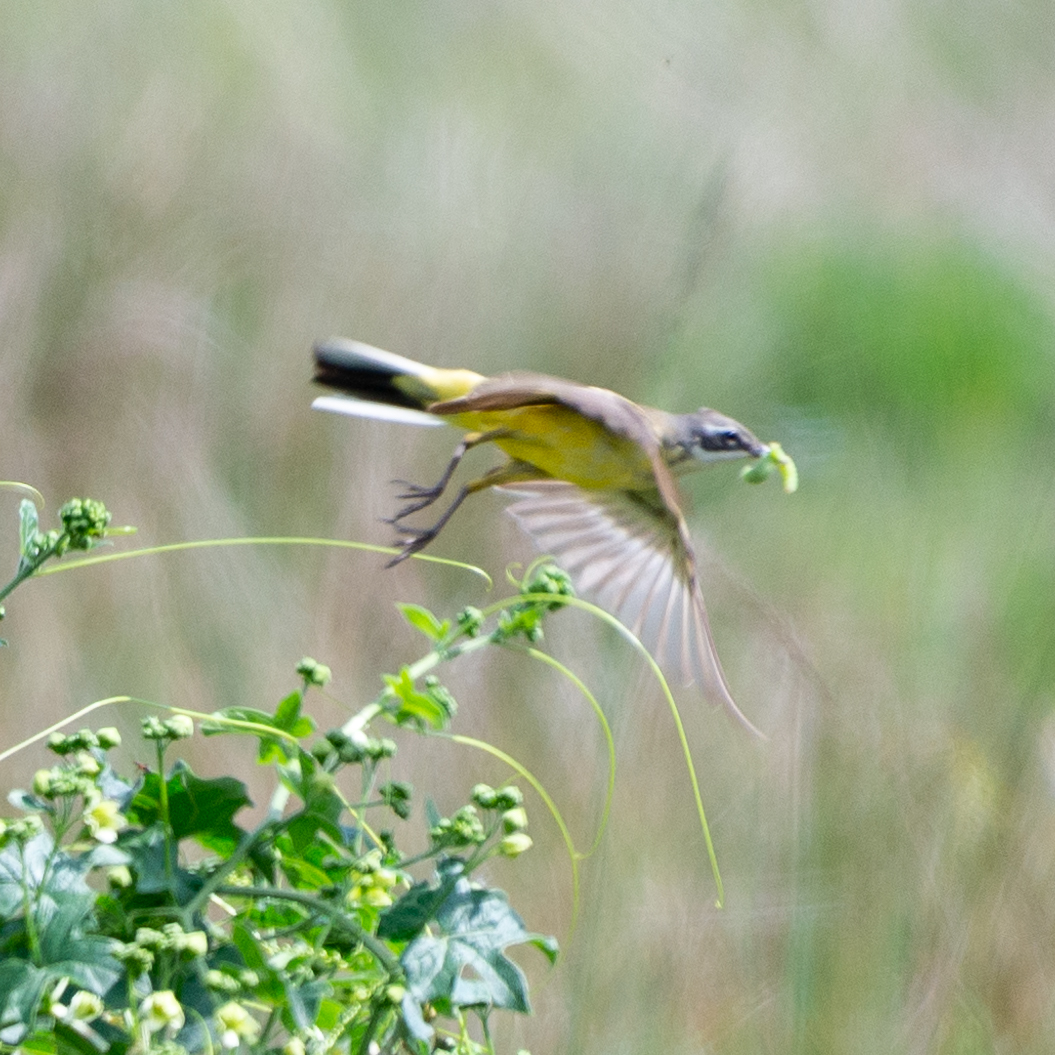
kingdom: Animalia
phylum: Chordata
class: Aves
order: Passeriformes
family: Motacillidae
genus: Motacilla
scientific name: Motacilla flava
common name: Western yellow wagtail
